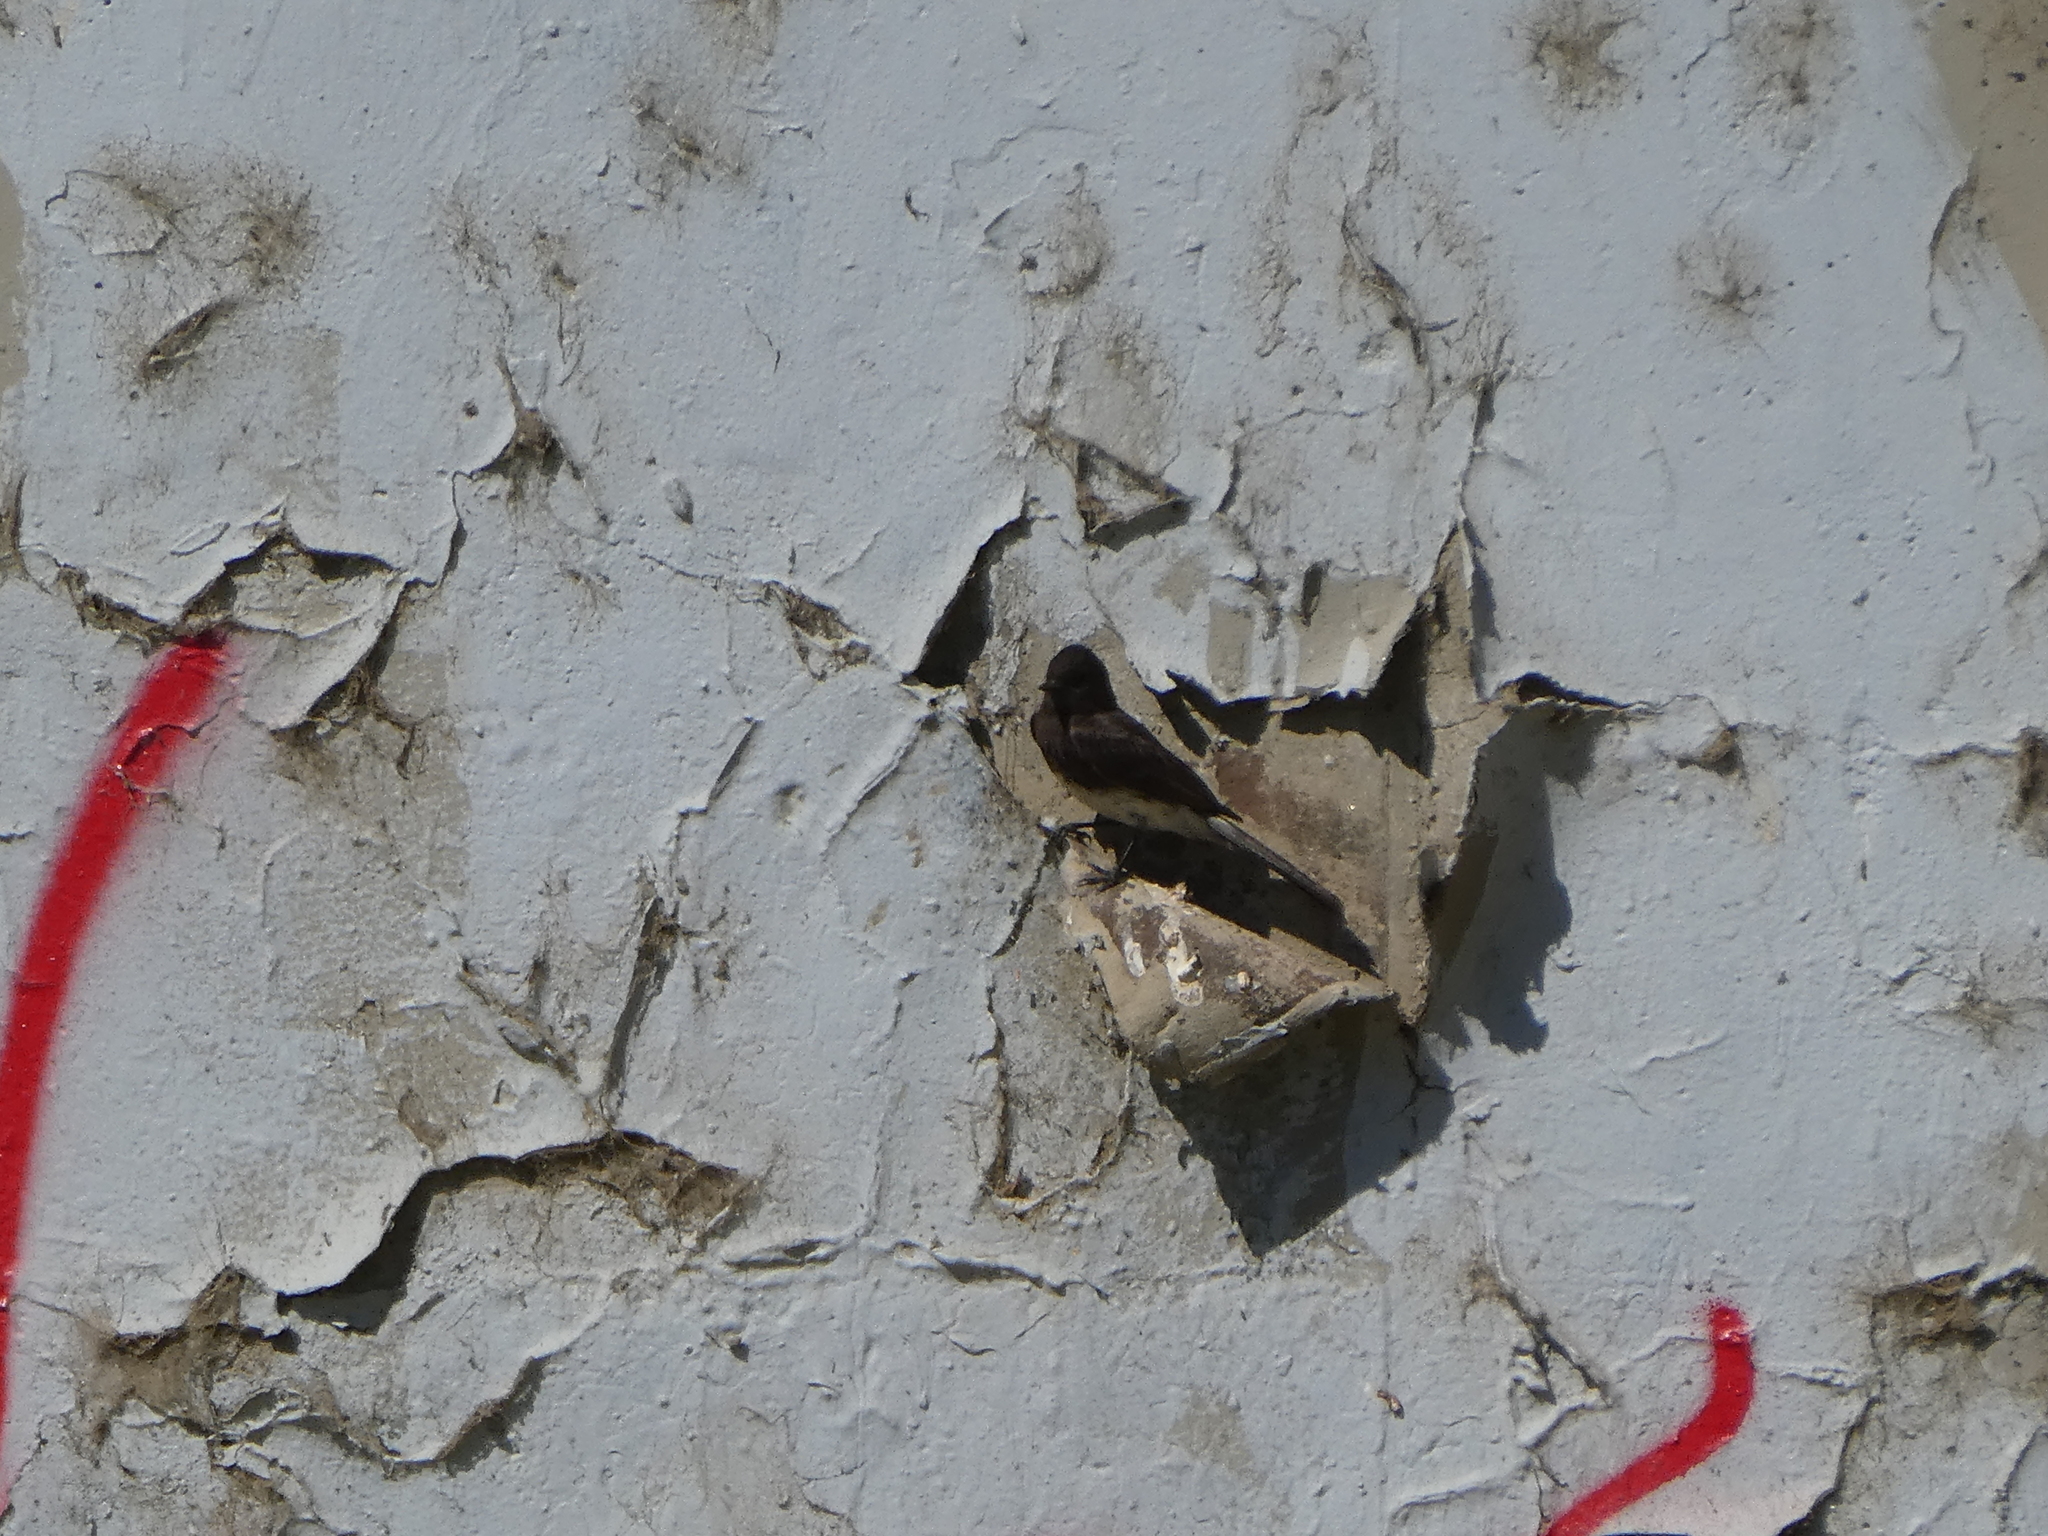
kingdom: Animalia
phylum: Chordata
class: Aves
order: Passeriformes
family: Tyrannidae
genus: Sayornis
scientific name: Sayornis nigricans
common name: Black phoebe
